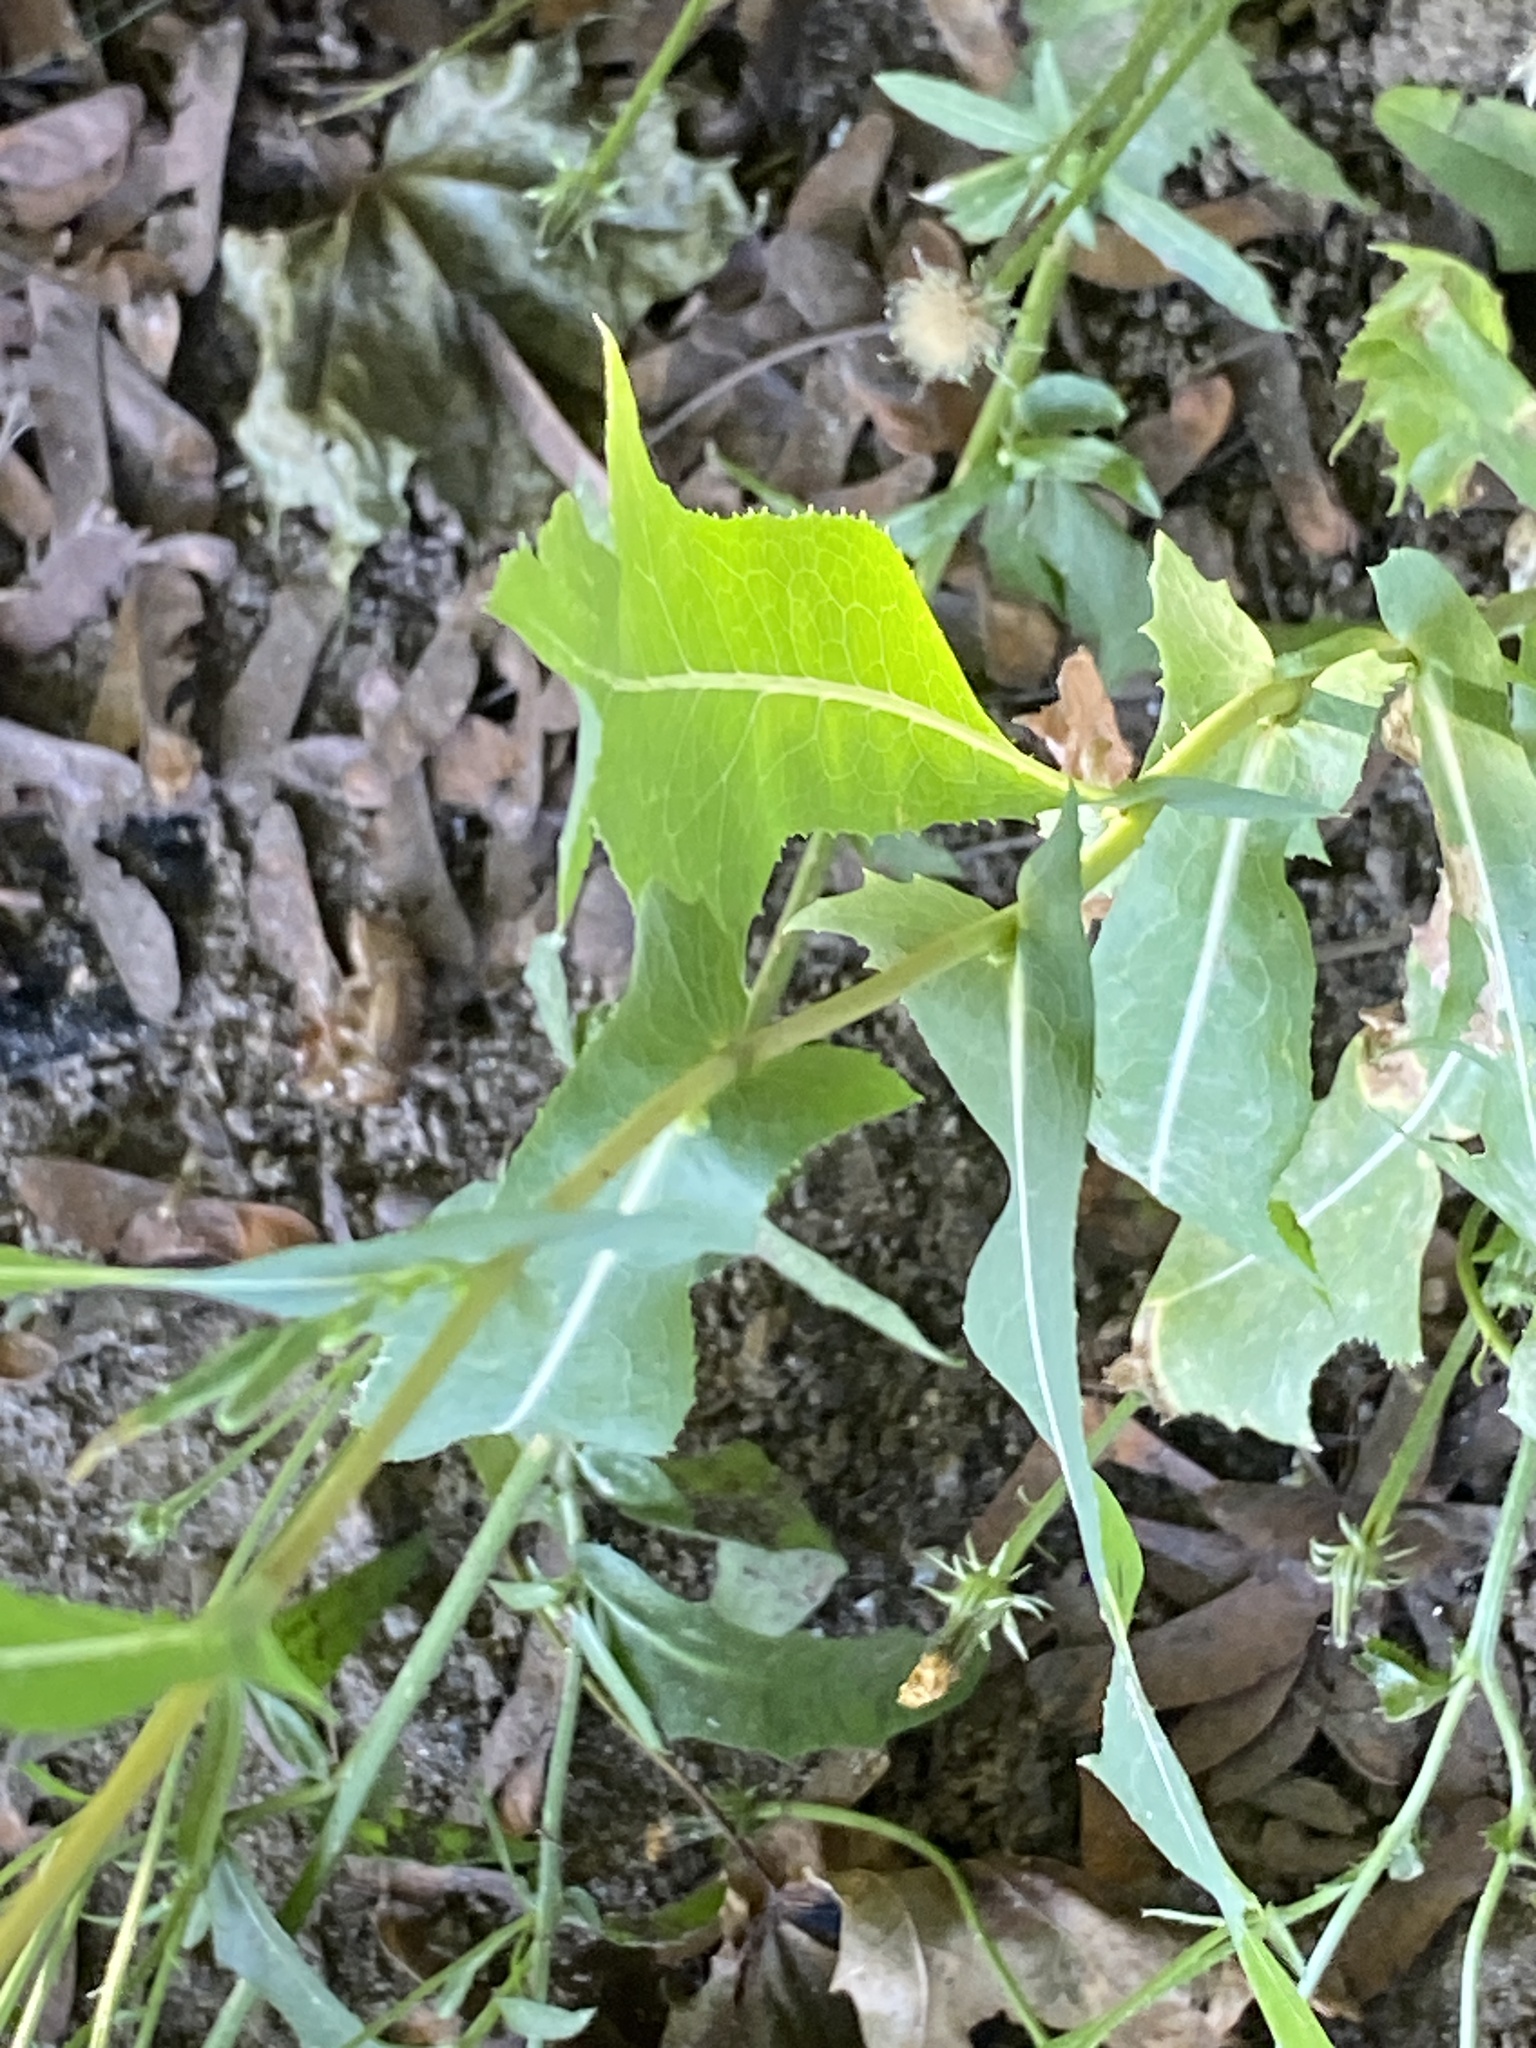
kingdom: Plantae
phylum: Tracheophyta
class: Magnoliopsida
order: Asterales
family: Asteraceae
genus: Lactuca
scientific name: Lactuca serriola
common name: Prickly lettuce
